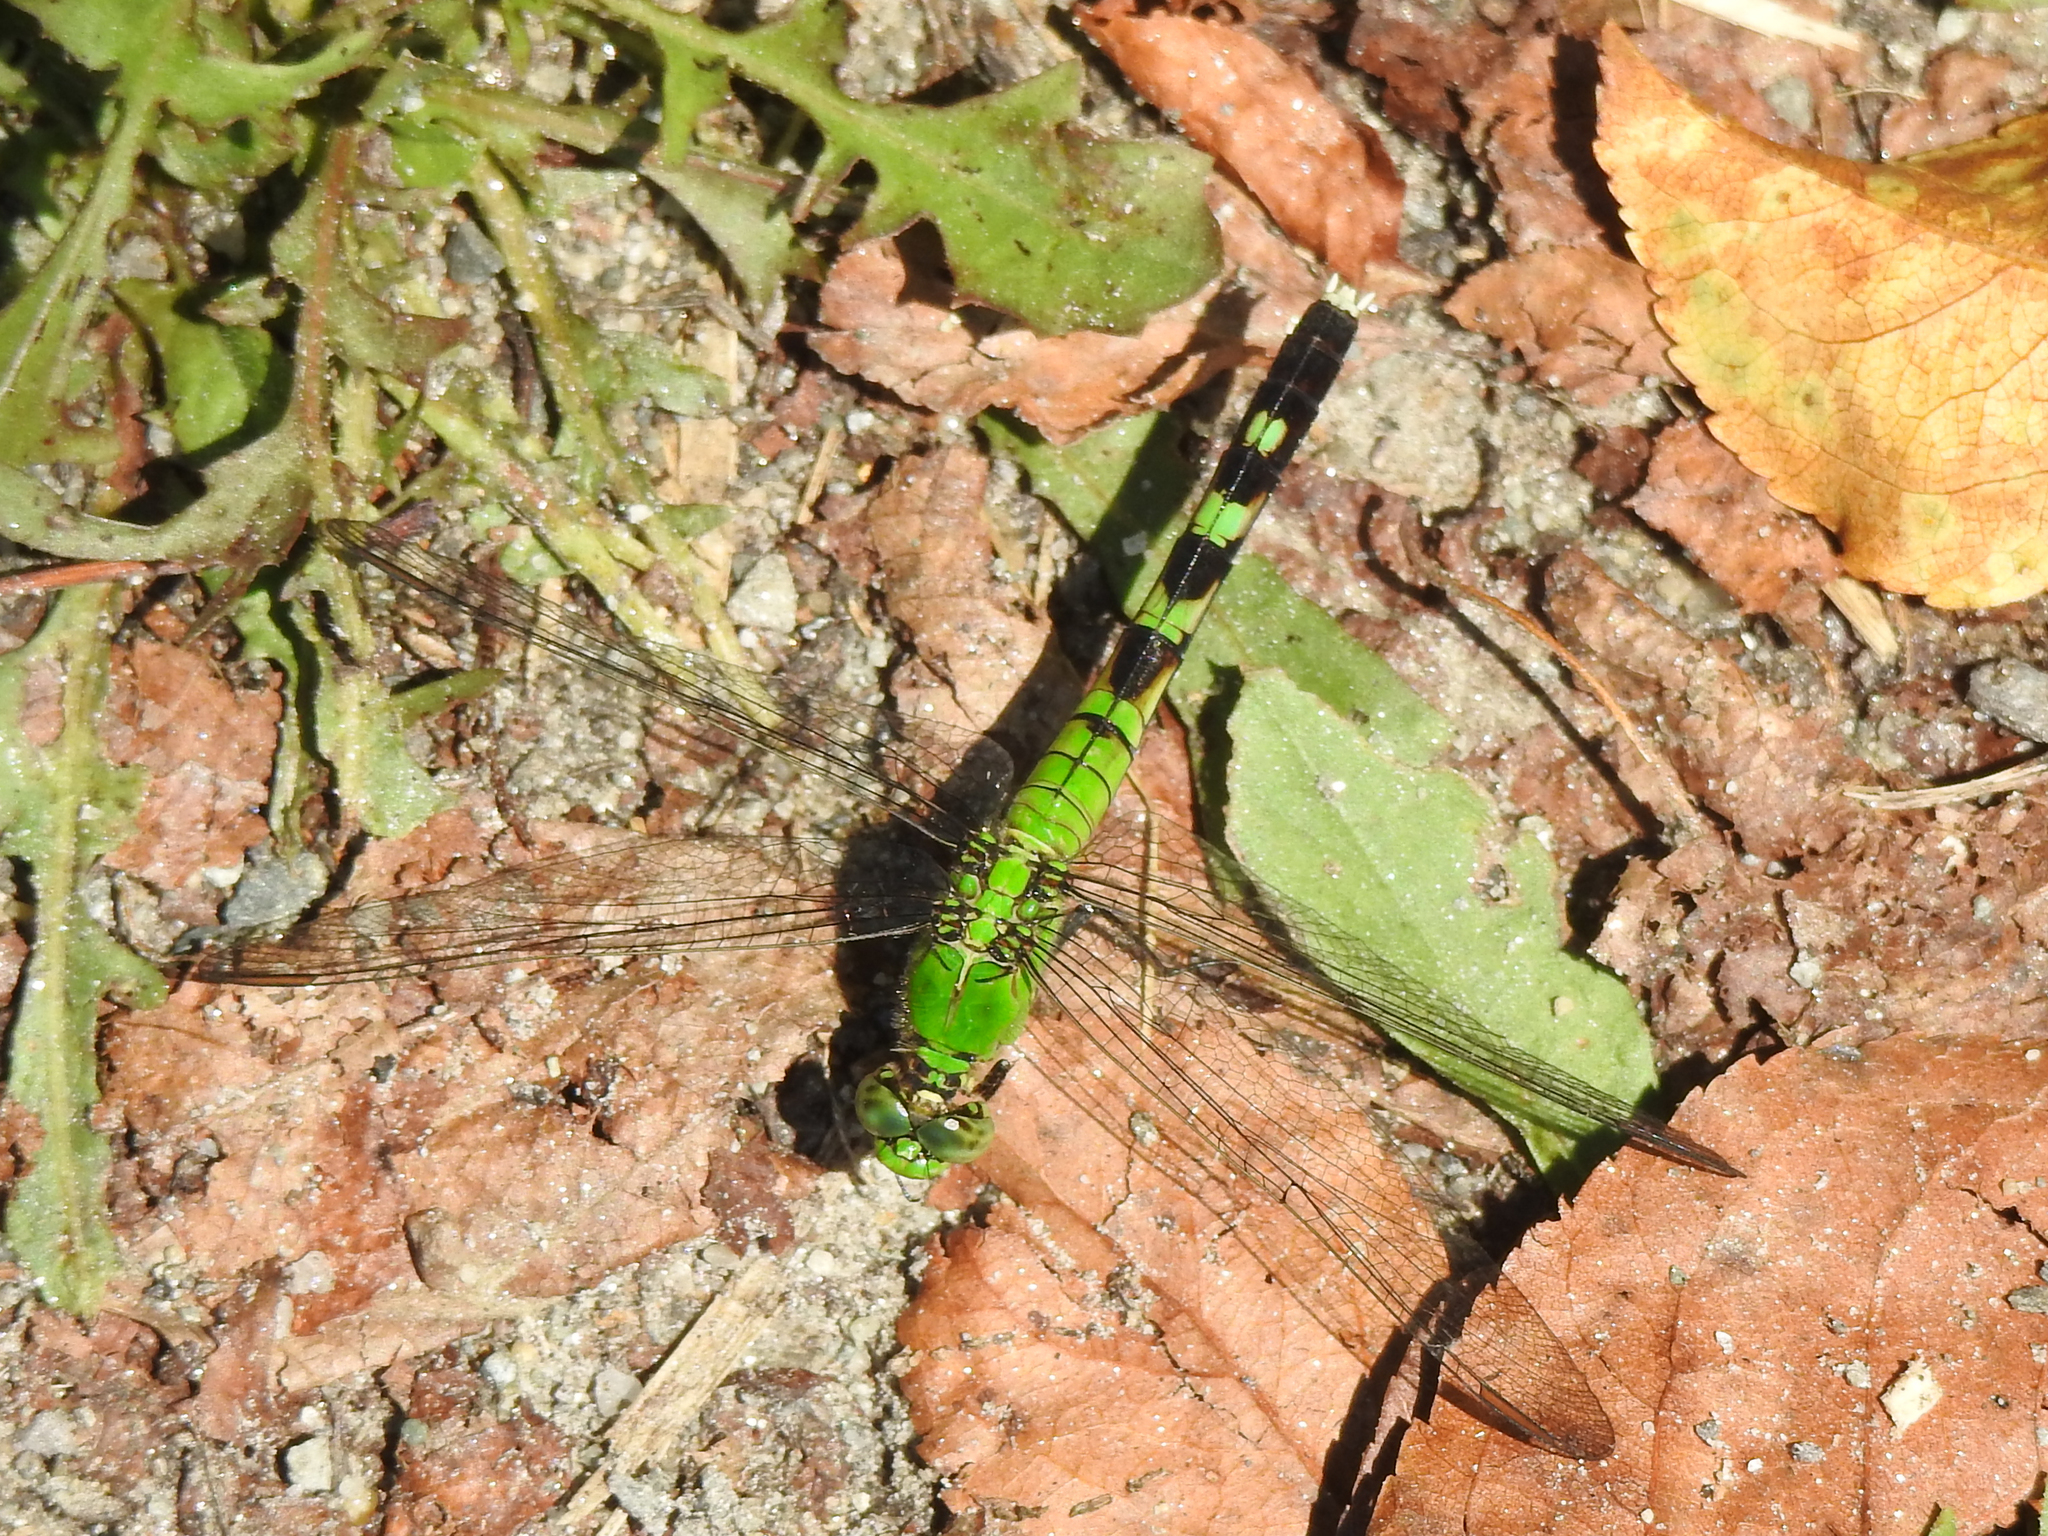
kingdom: Animalia
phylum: Arthropoda
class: Insecta
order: Odonata
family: Libellulidae
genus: Erythemis
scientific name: Erythemis simplicicollis
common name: Eastern pondhawk
